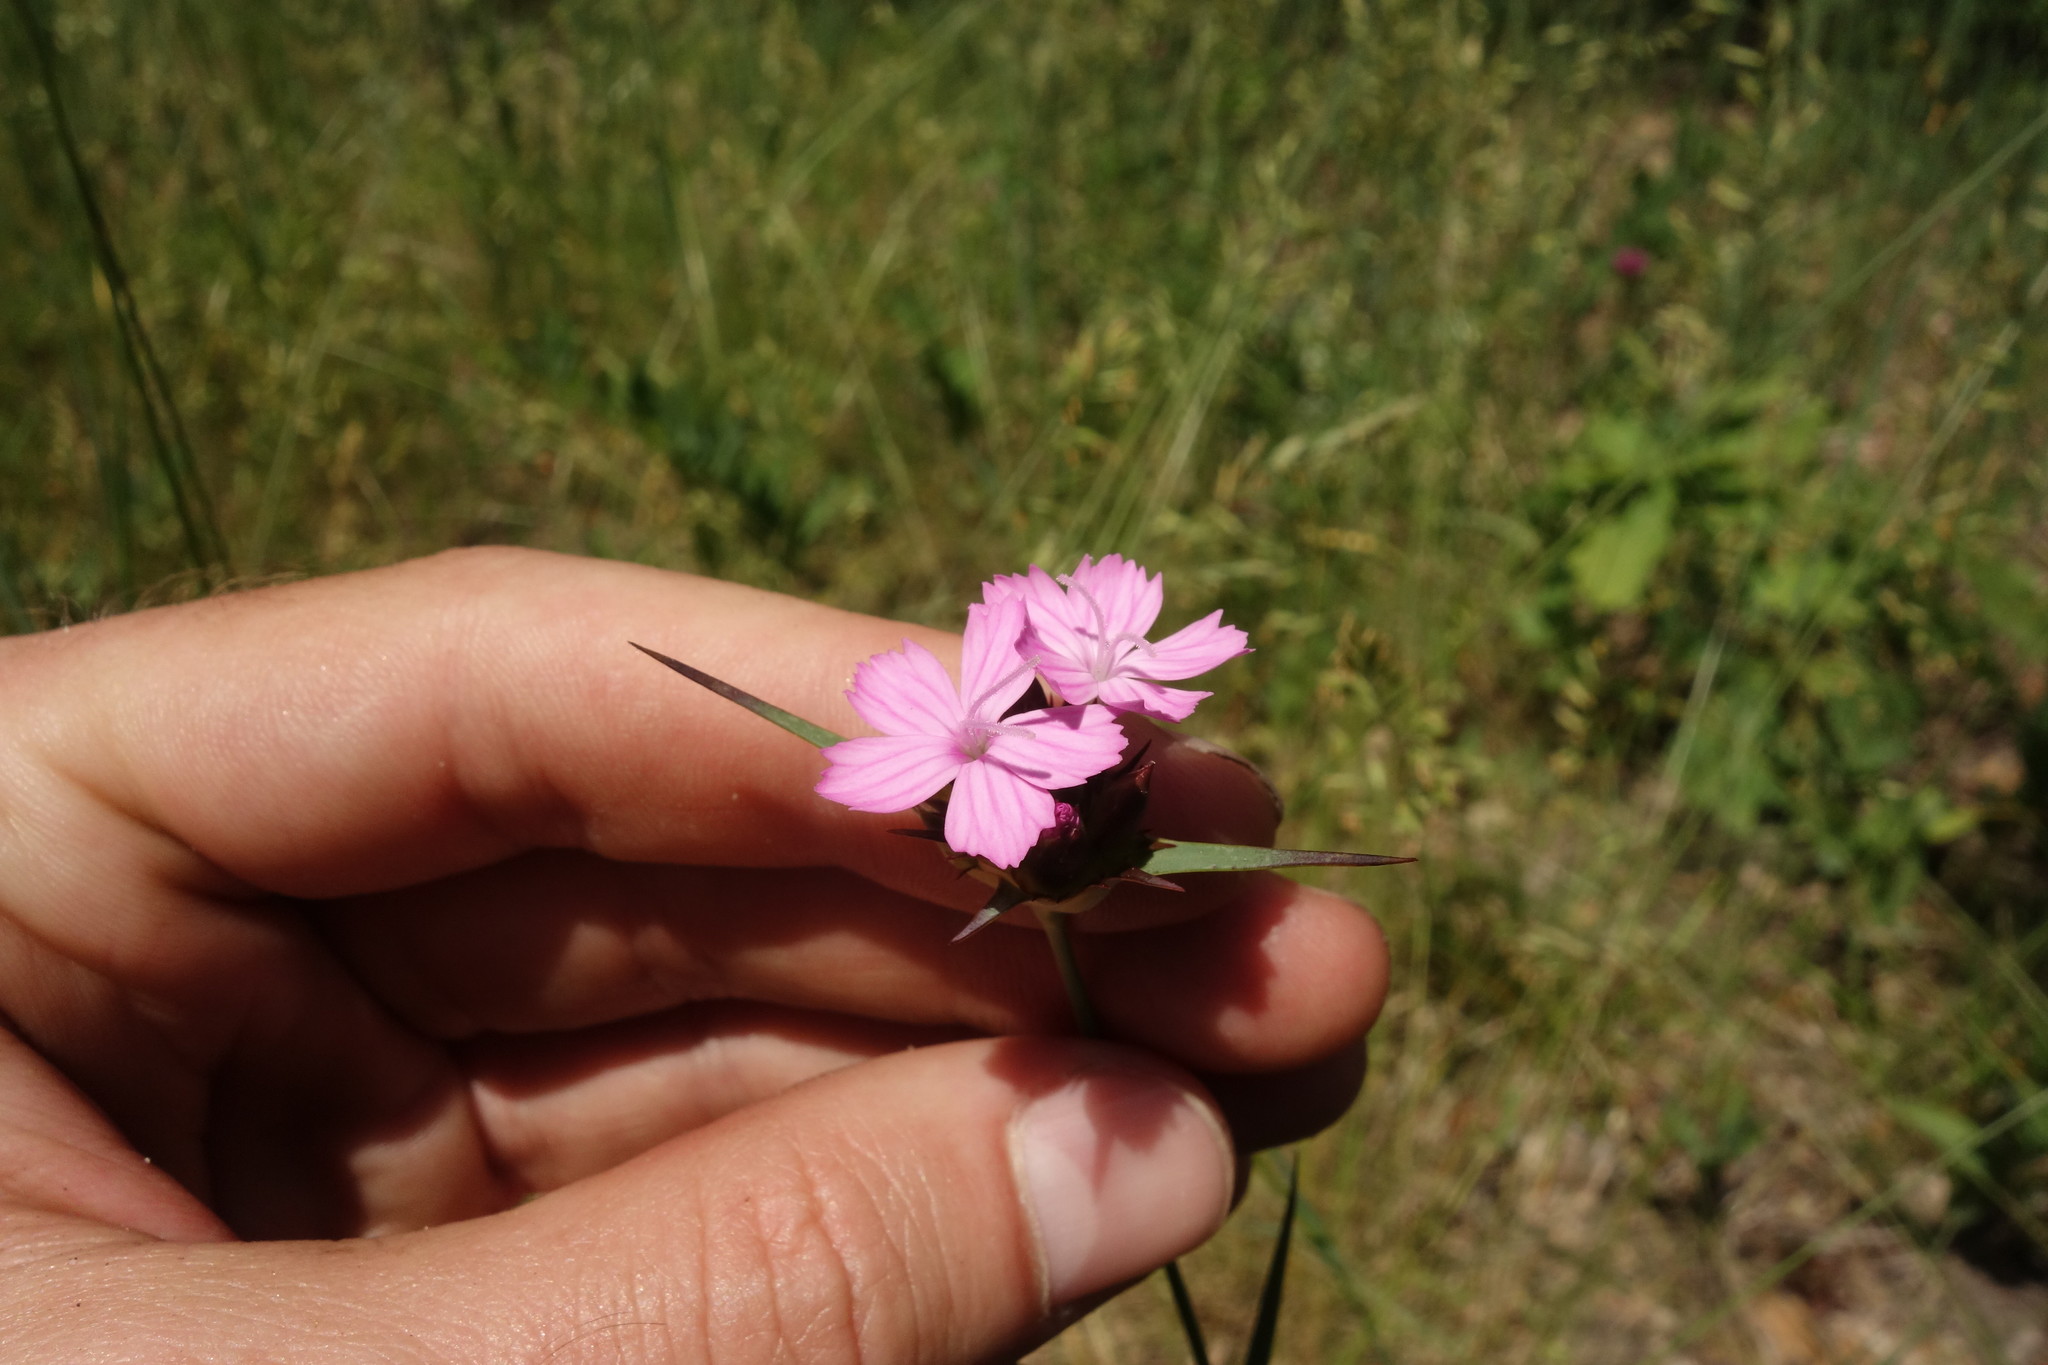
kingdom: Plantae
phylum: Tracheophyta
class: Magnoliopsida
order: Caryophyllales
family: Caryophyllaceae
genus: Dianthus
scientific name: Dianthus capitatus
